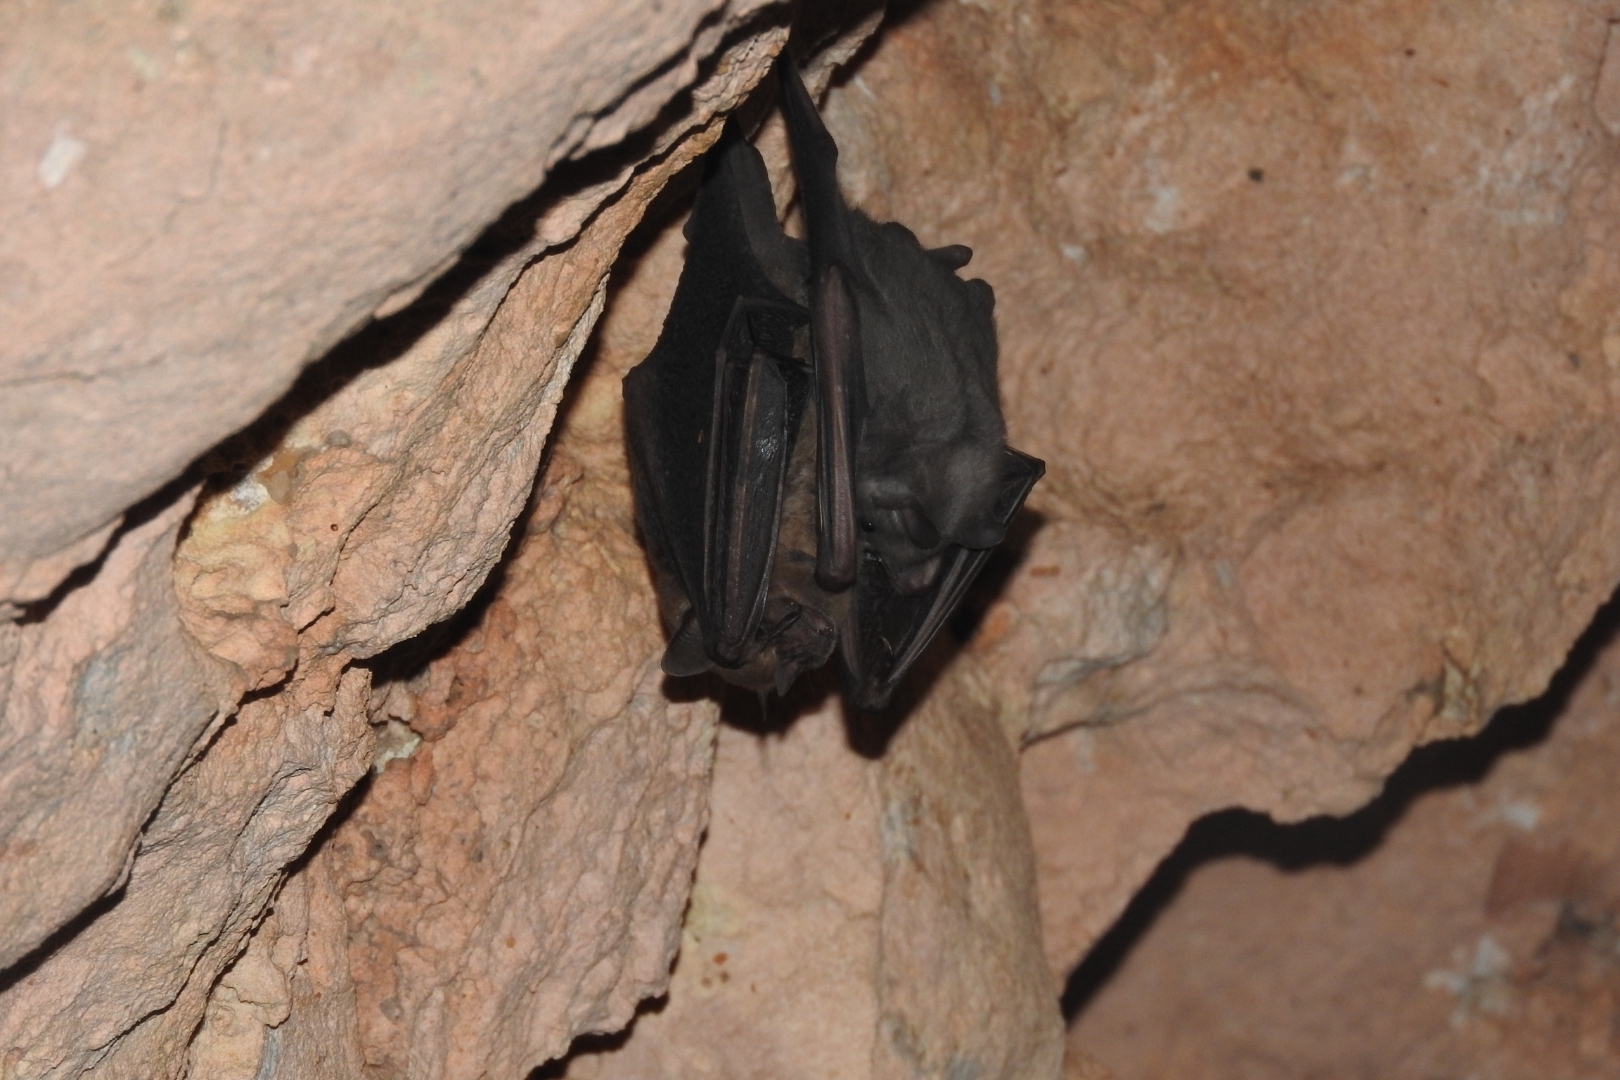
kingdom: Animalia
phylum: Chordata
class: Mammalia
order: Chiroptera
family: Phyllostomidae
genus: Artibeus
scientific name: Artibeus jamaicensis
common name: Jamaican fruit-eating bat
